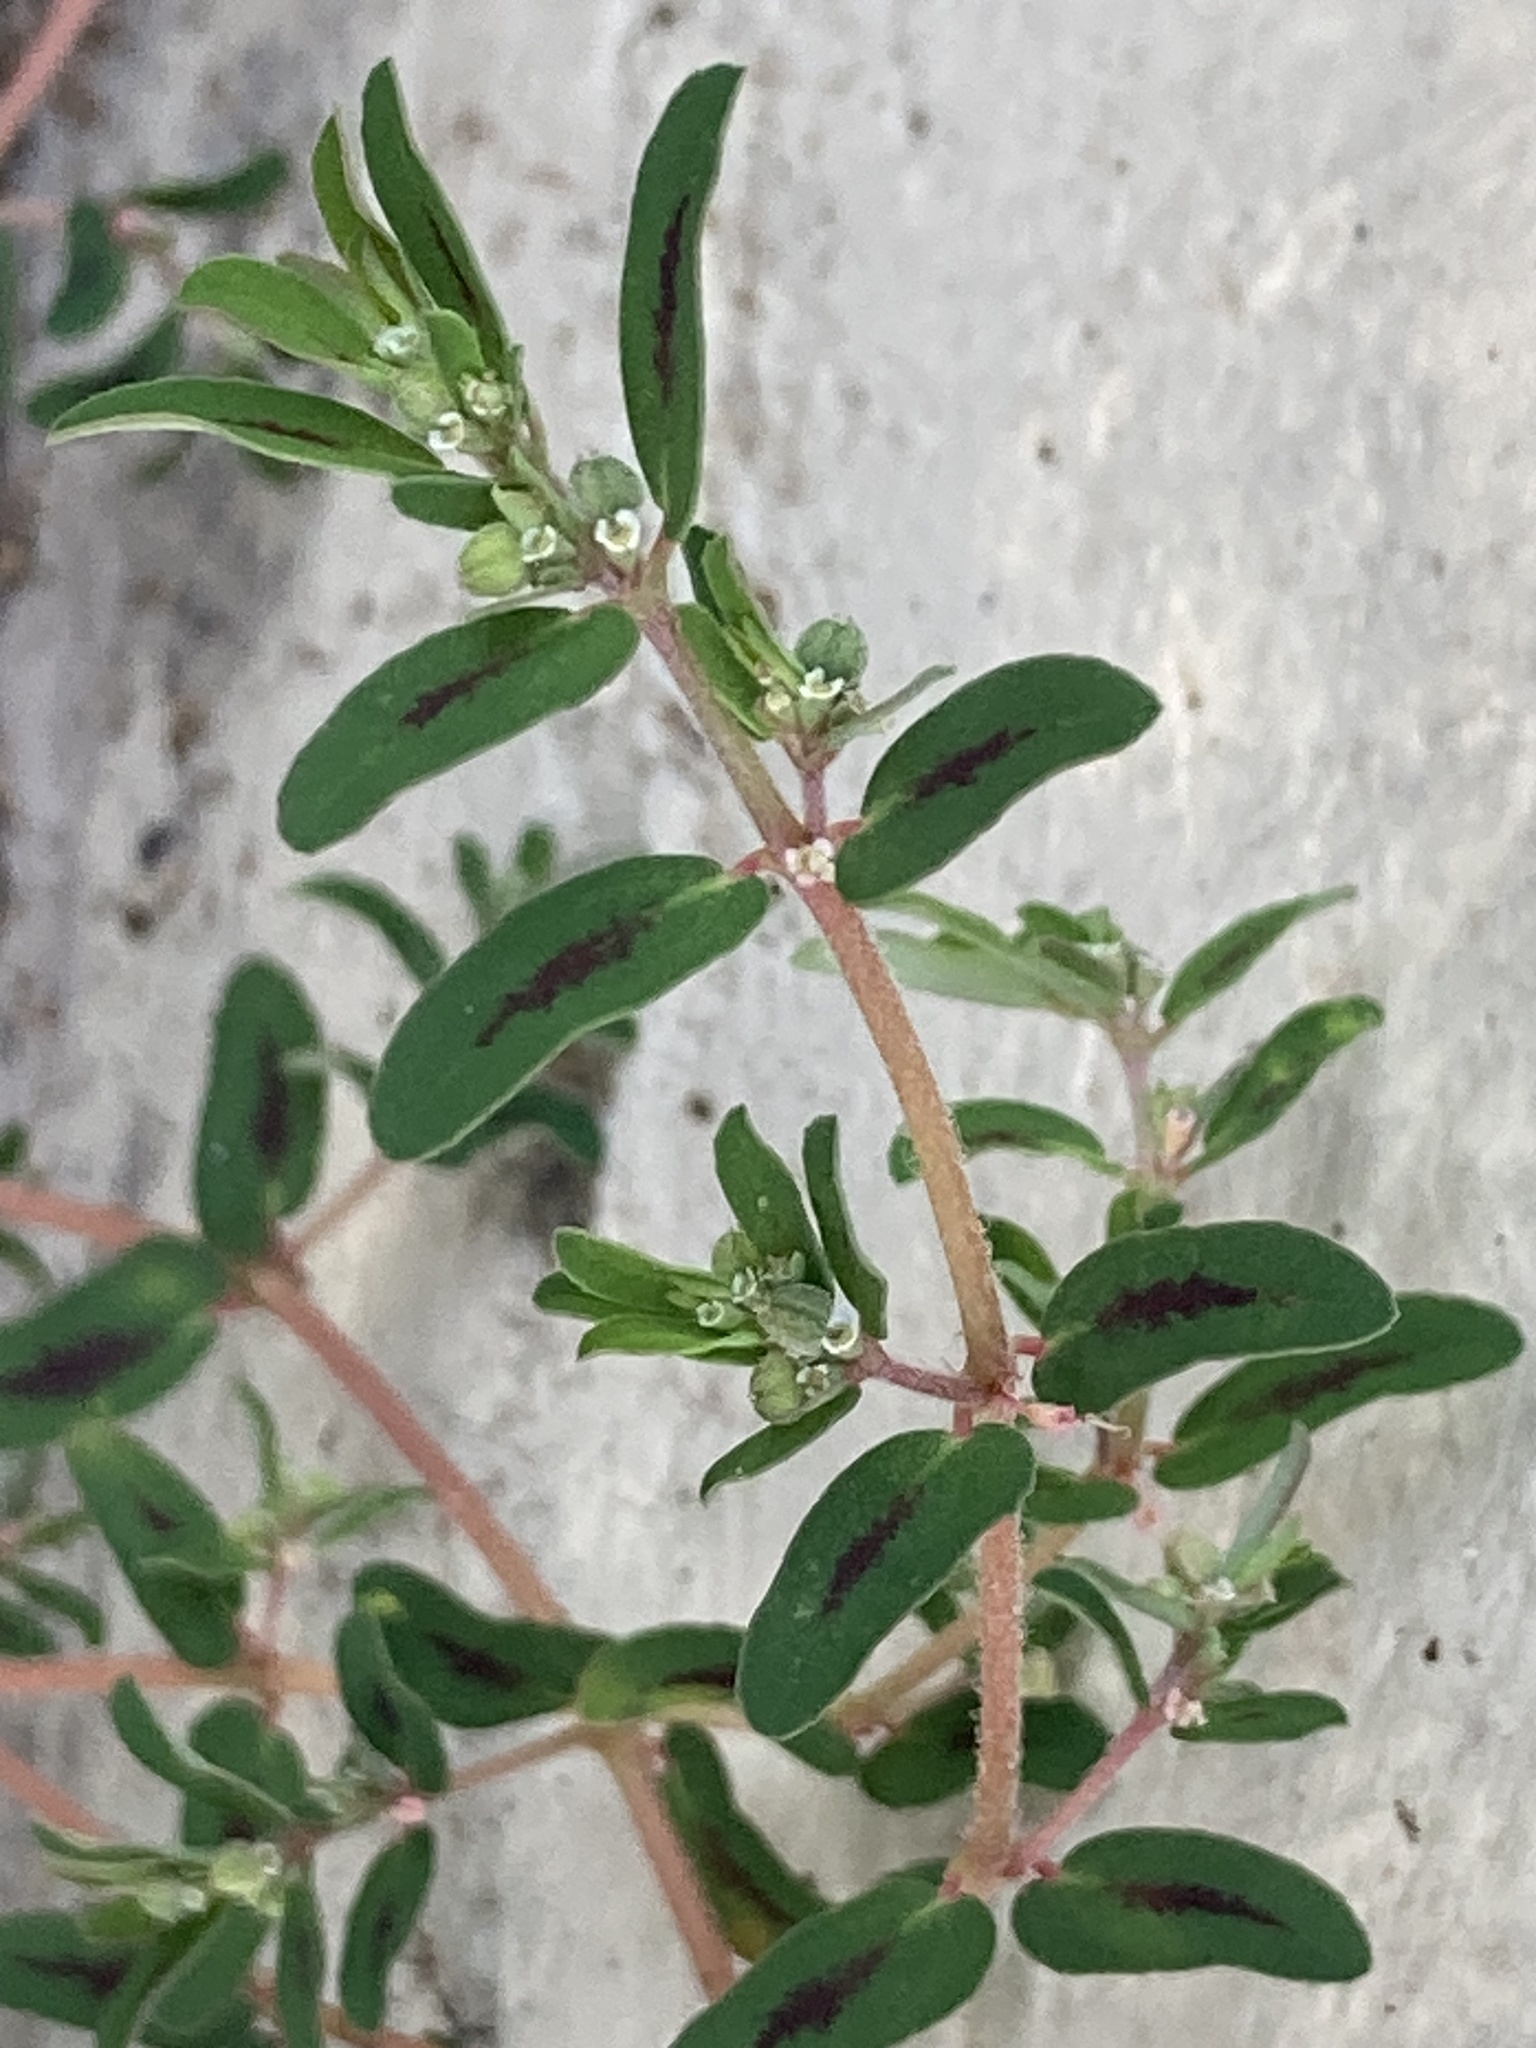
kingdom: Plantae
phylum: Tracheophyta
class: Magnoliopsida
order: Malpighiales
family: Euphorbiaceae
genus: Euphorbia
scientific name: Euphorbia maculata
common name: Spotted spurge
